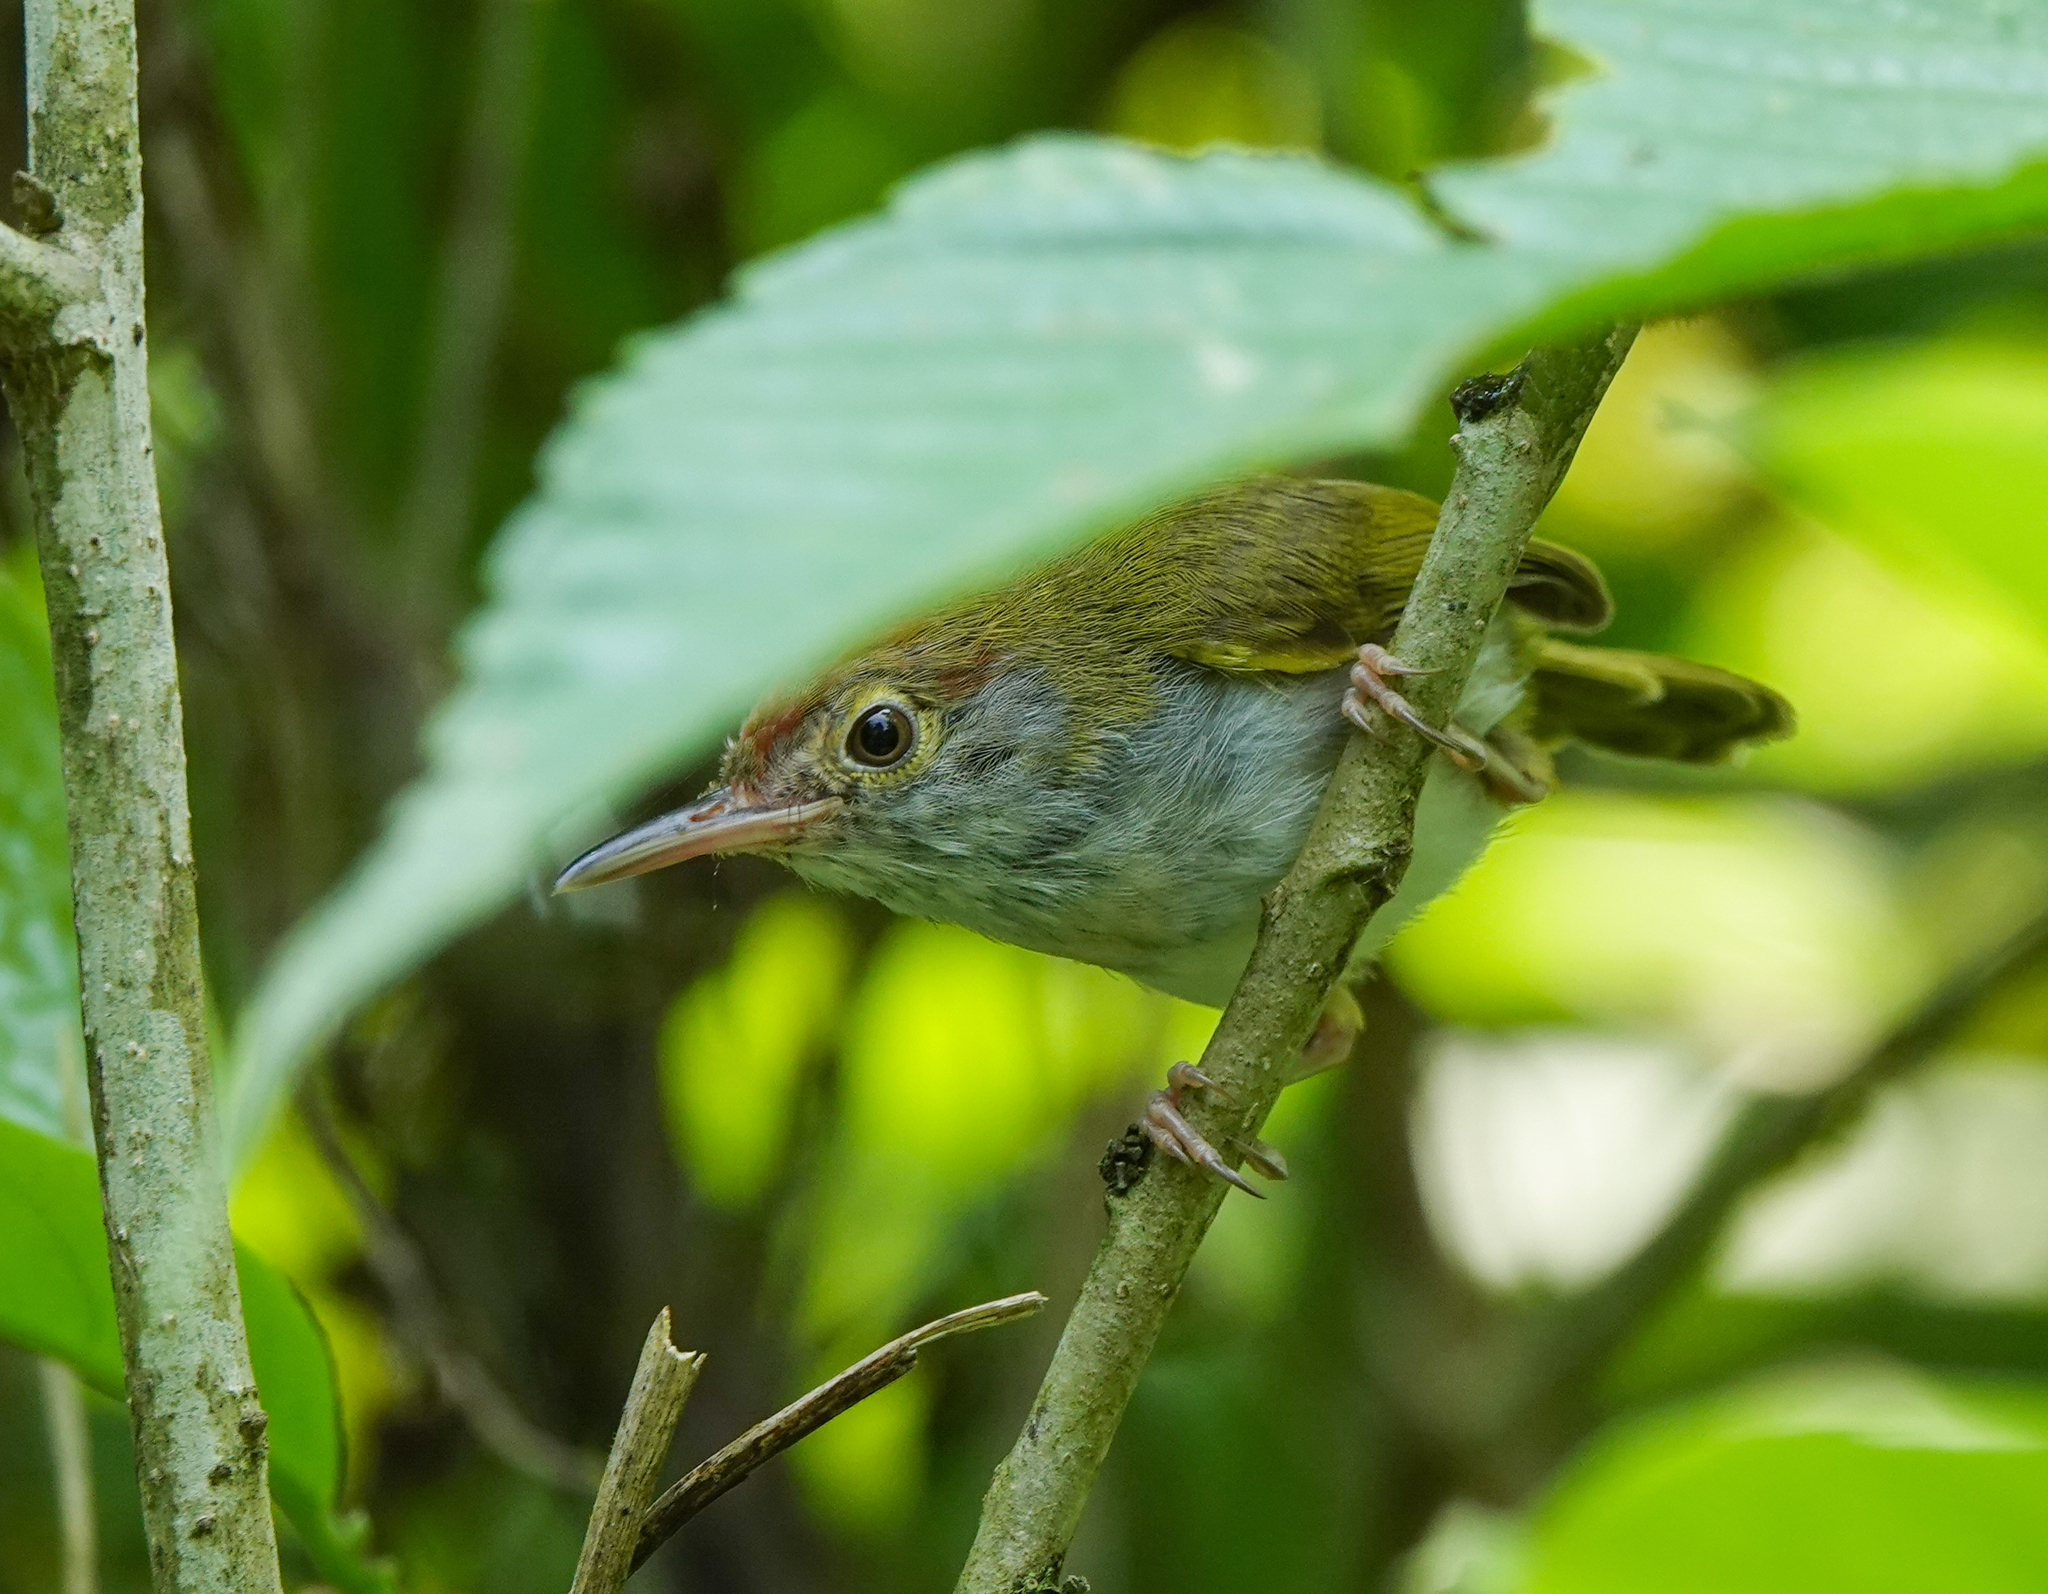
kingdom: Animalia
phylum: Chordata
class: Aves
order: Passeriformes
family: Cisticolidae
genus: Orthotomus
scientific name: Orthotomus atrogularis
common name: Dark-necked tailorbird
